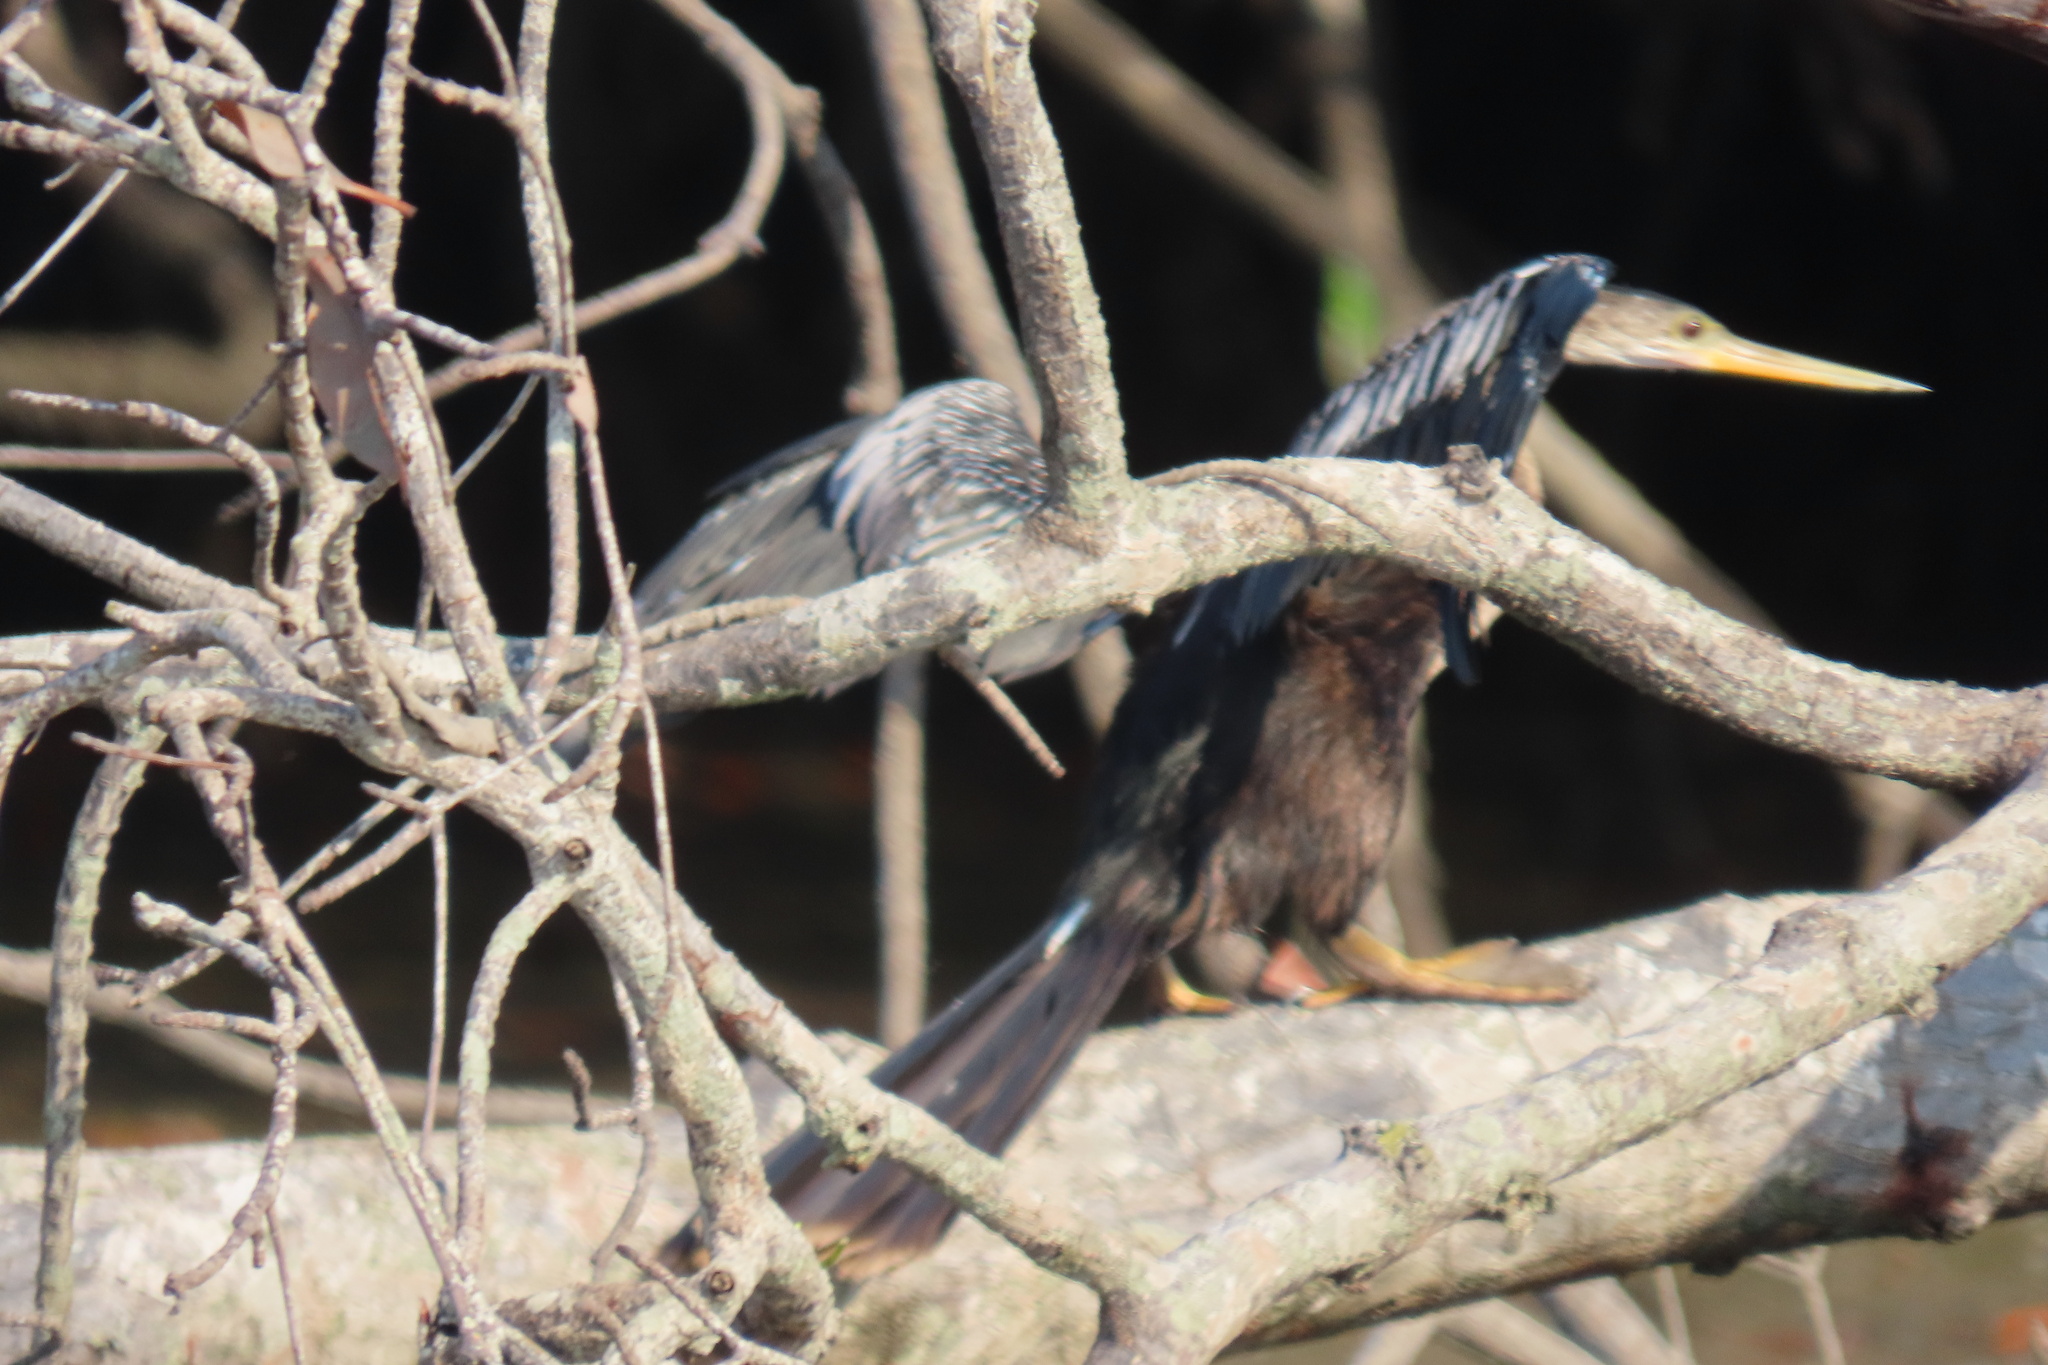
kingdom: Animalia
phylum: Chordata
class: Aves
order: Suliformes
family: Anhingidae
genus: Anhinga
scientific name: Anhinga anhinga
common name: Anhinga
